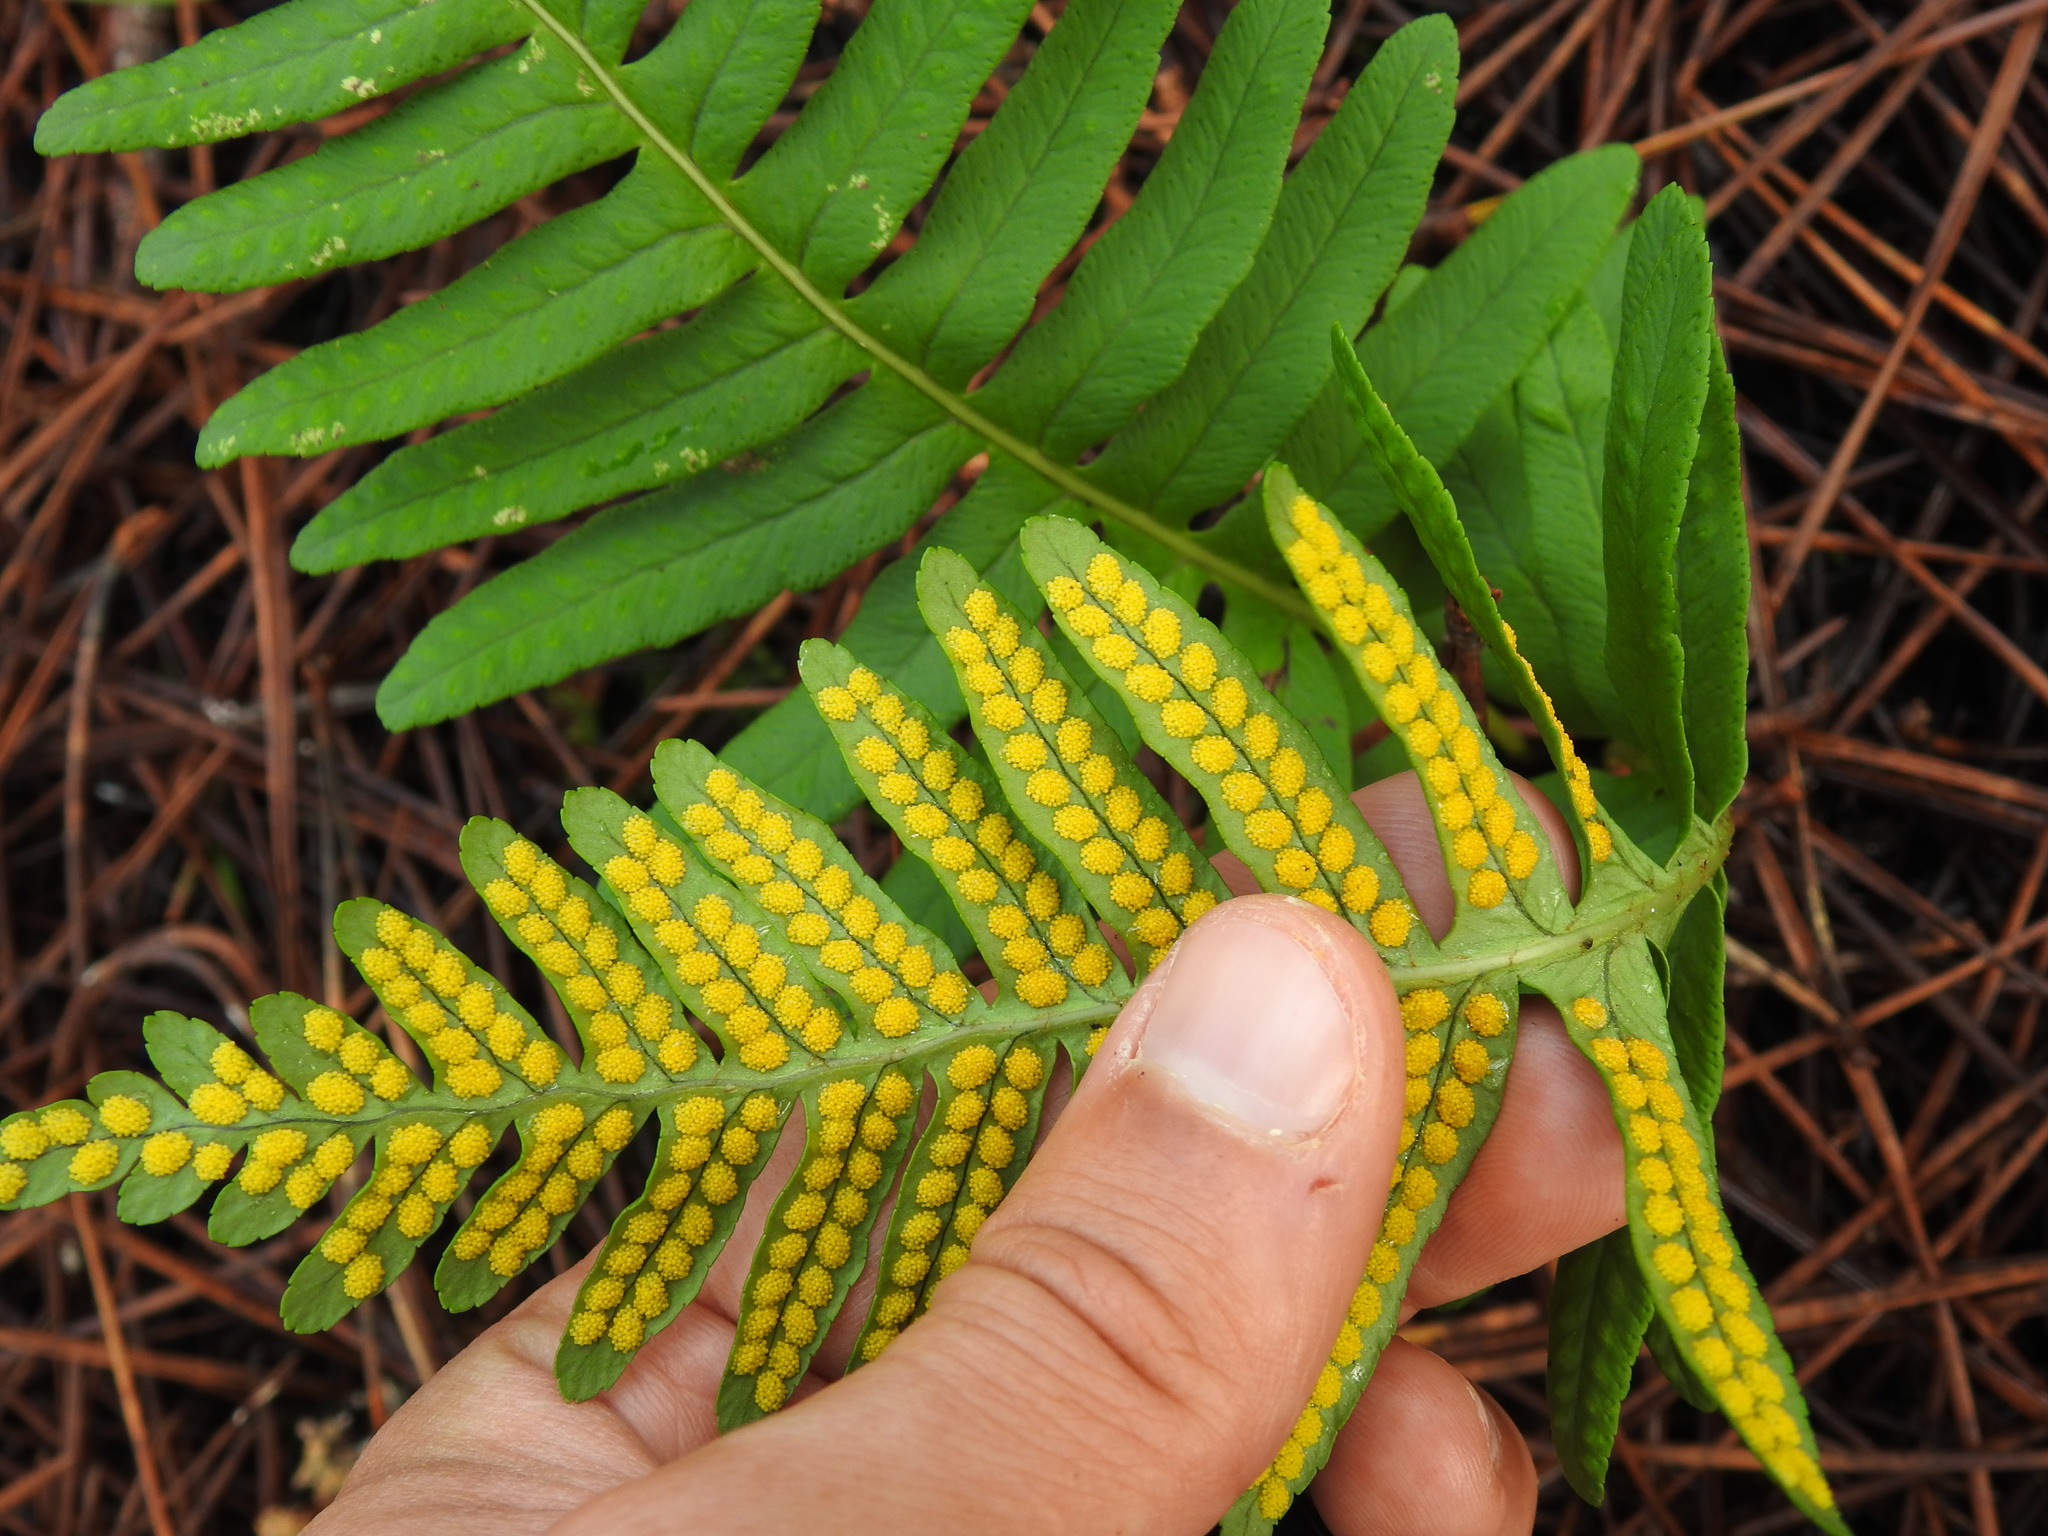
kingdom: Plantae
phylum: Tracheophyta
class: Polypodiopsida
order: Polypodiales
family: Polypodiaceae
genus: Polypodium
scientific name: Polypodium cambricum
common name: Southern polypody
